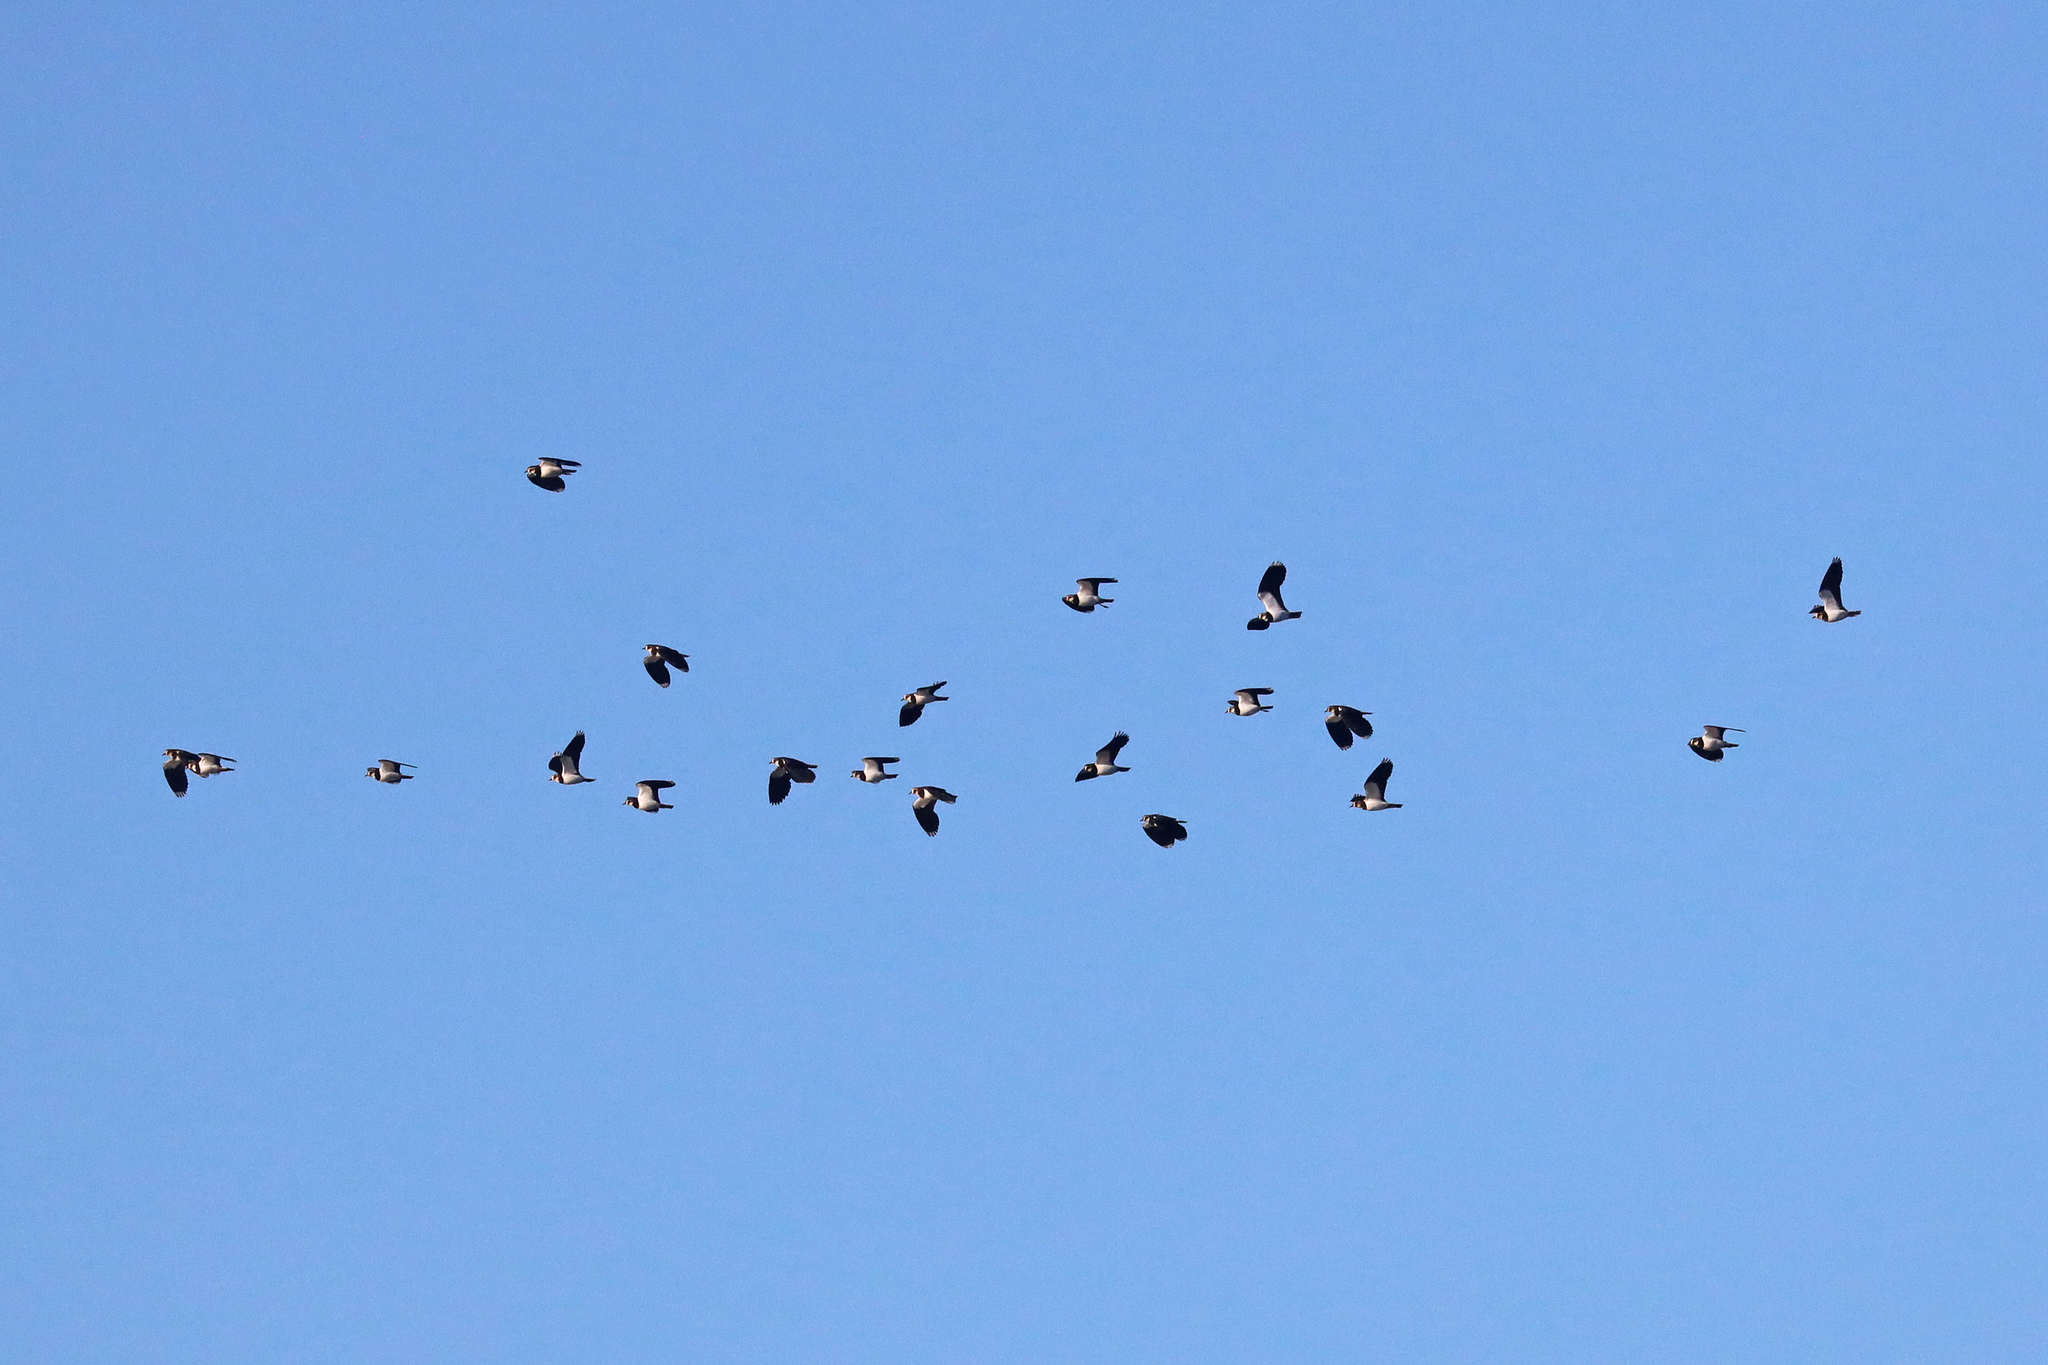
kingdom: Animalia
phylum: Chordata
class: Aves
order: Charadriiformes
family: Charadriidae
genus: Vanellus
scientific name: Vanellus vanellus
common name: Northern lapwing
